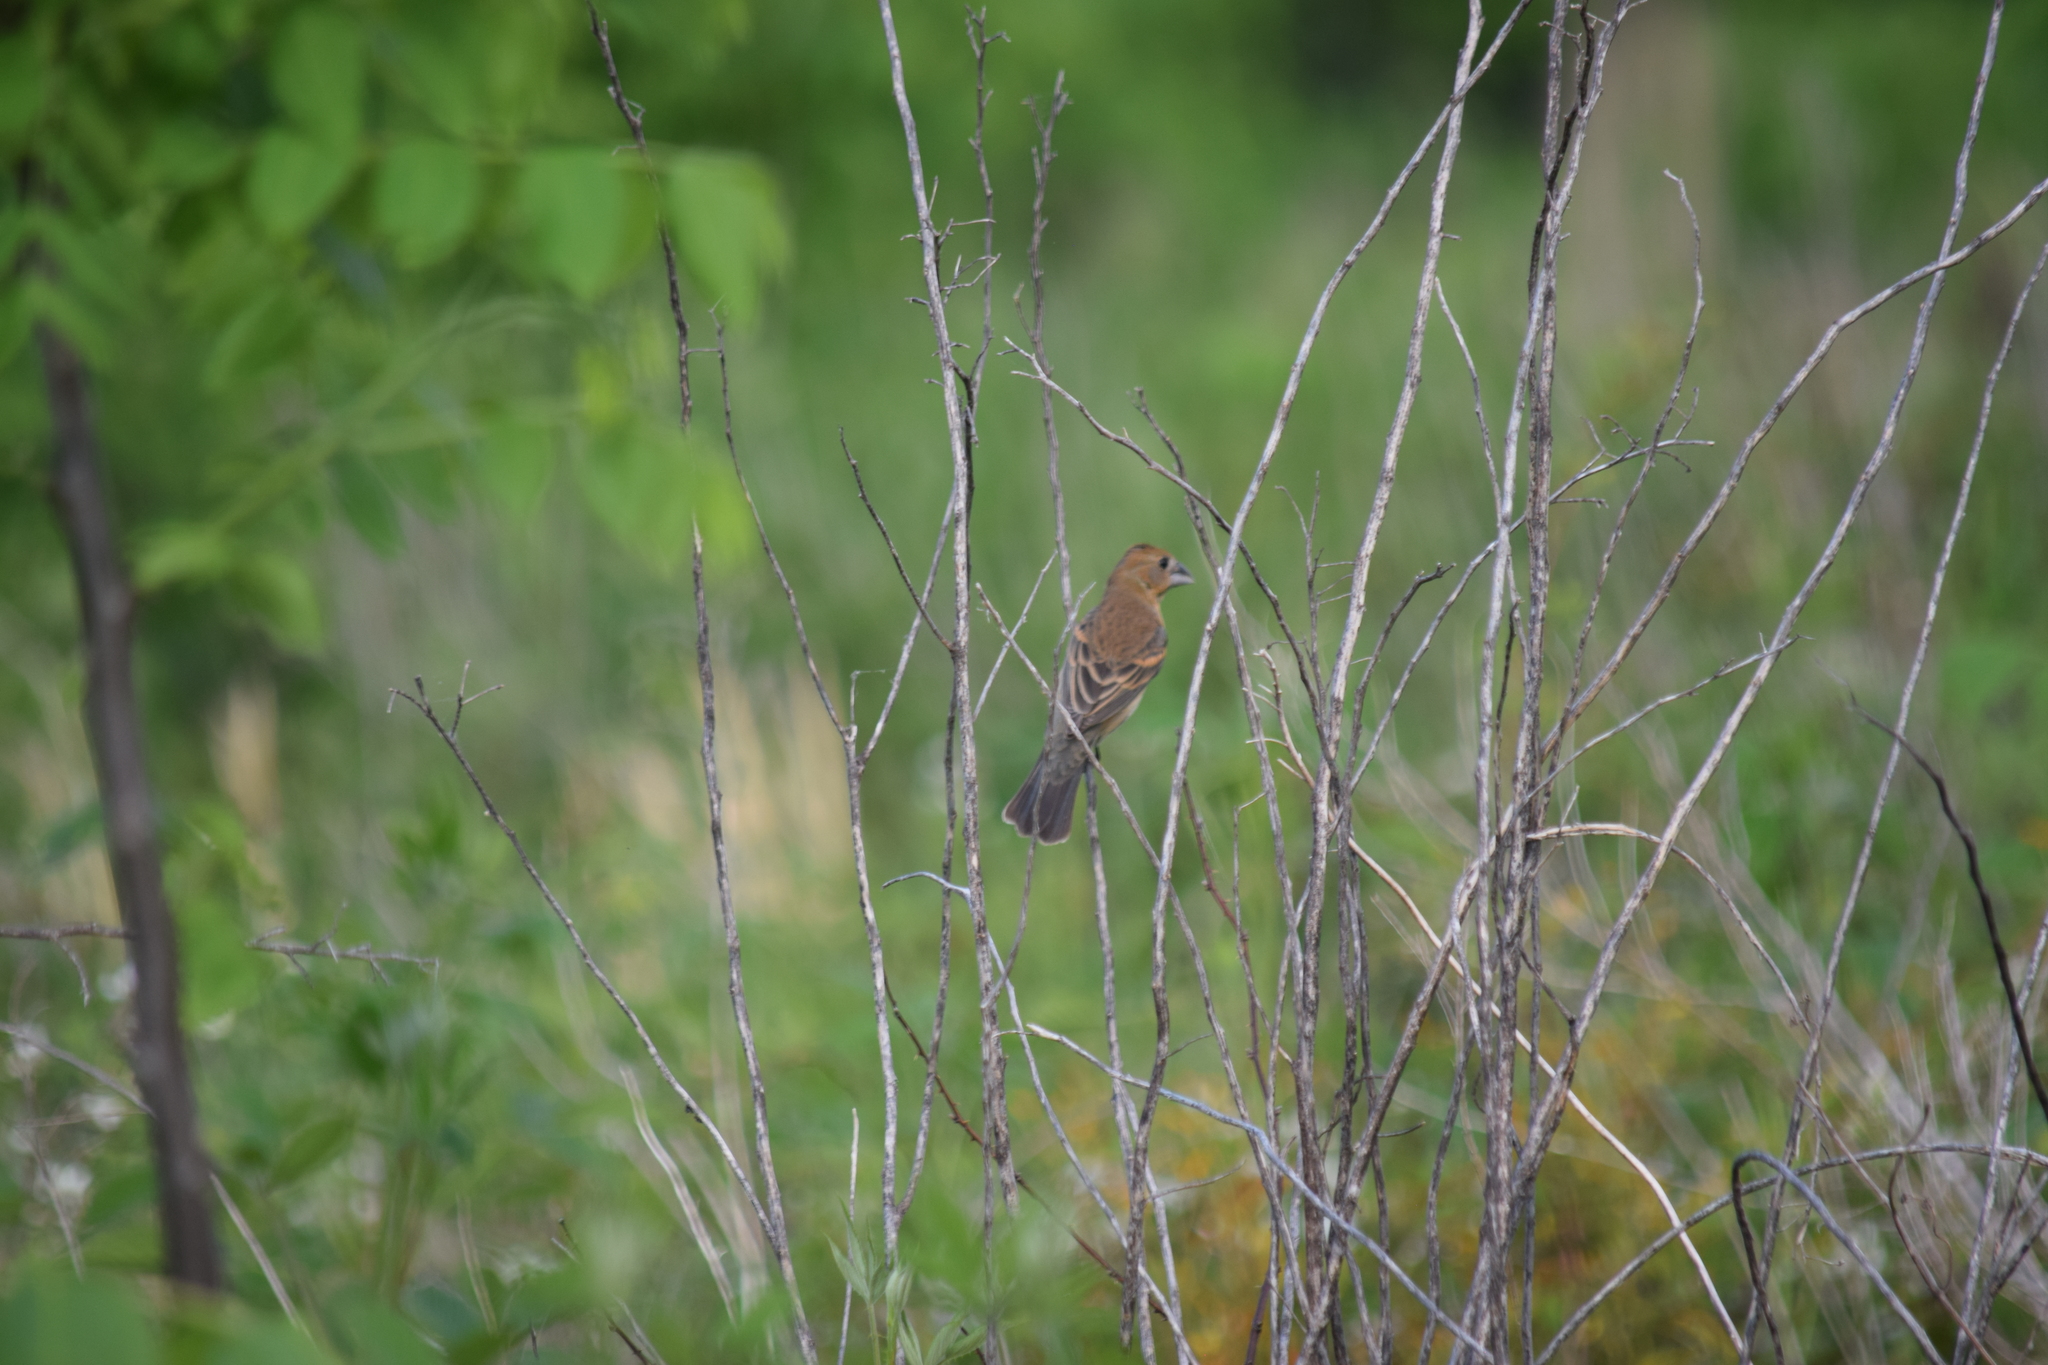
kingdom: Animalia
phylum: Chordata
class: Aves
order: Passeriformes
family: Cardinalidae
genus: Passerina
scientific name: Passerina caerulea
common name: Blue grosbeak
